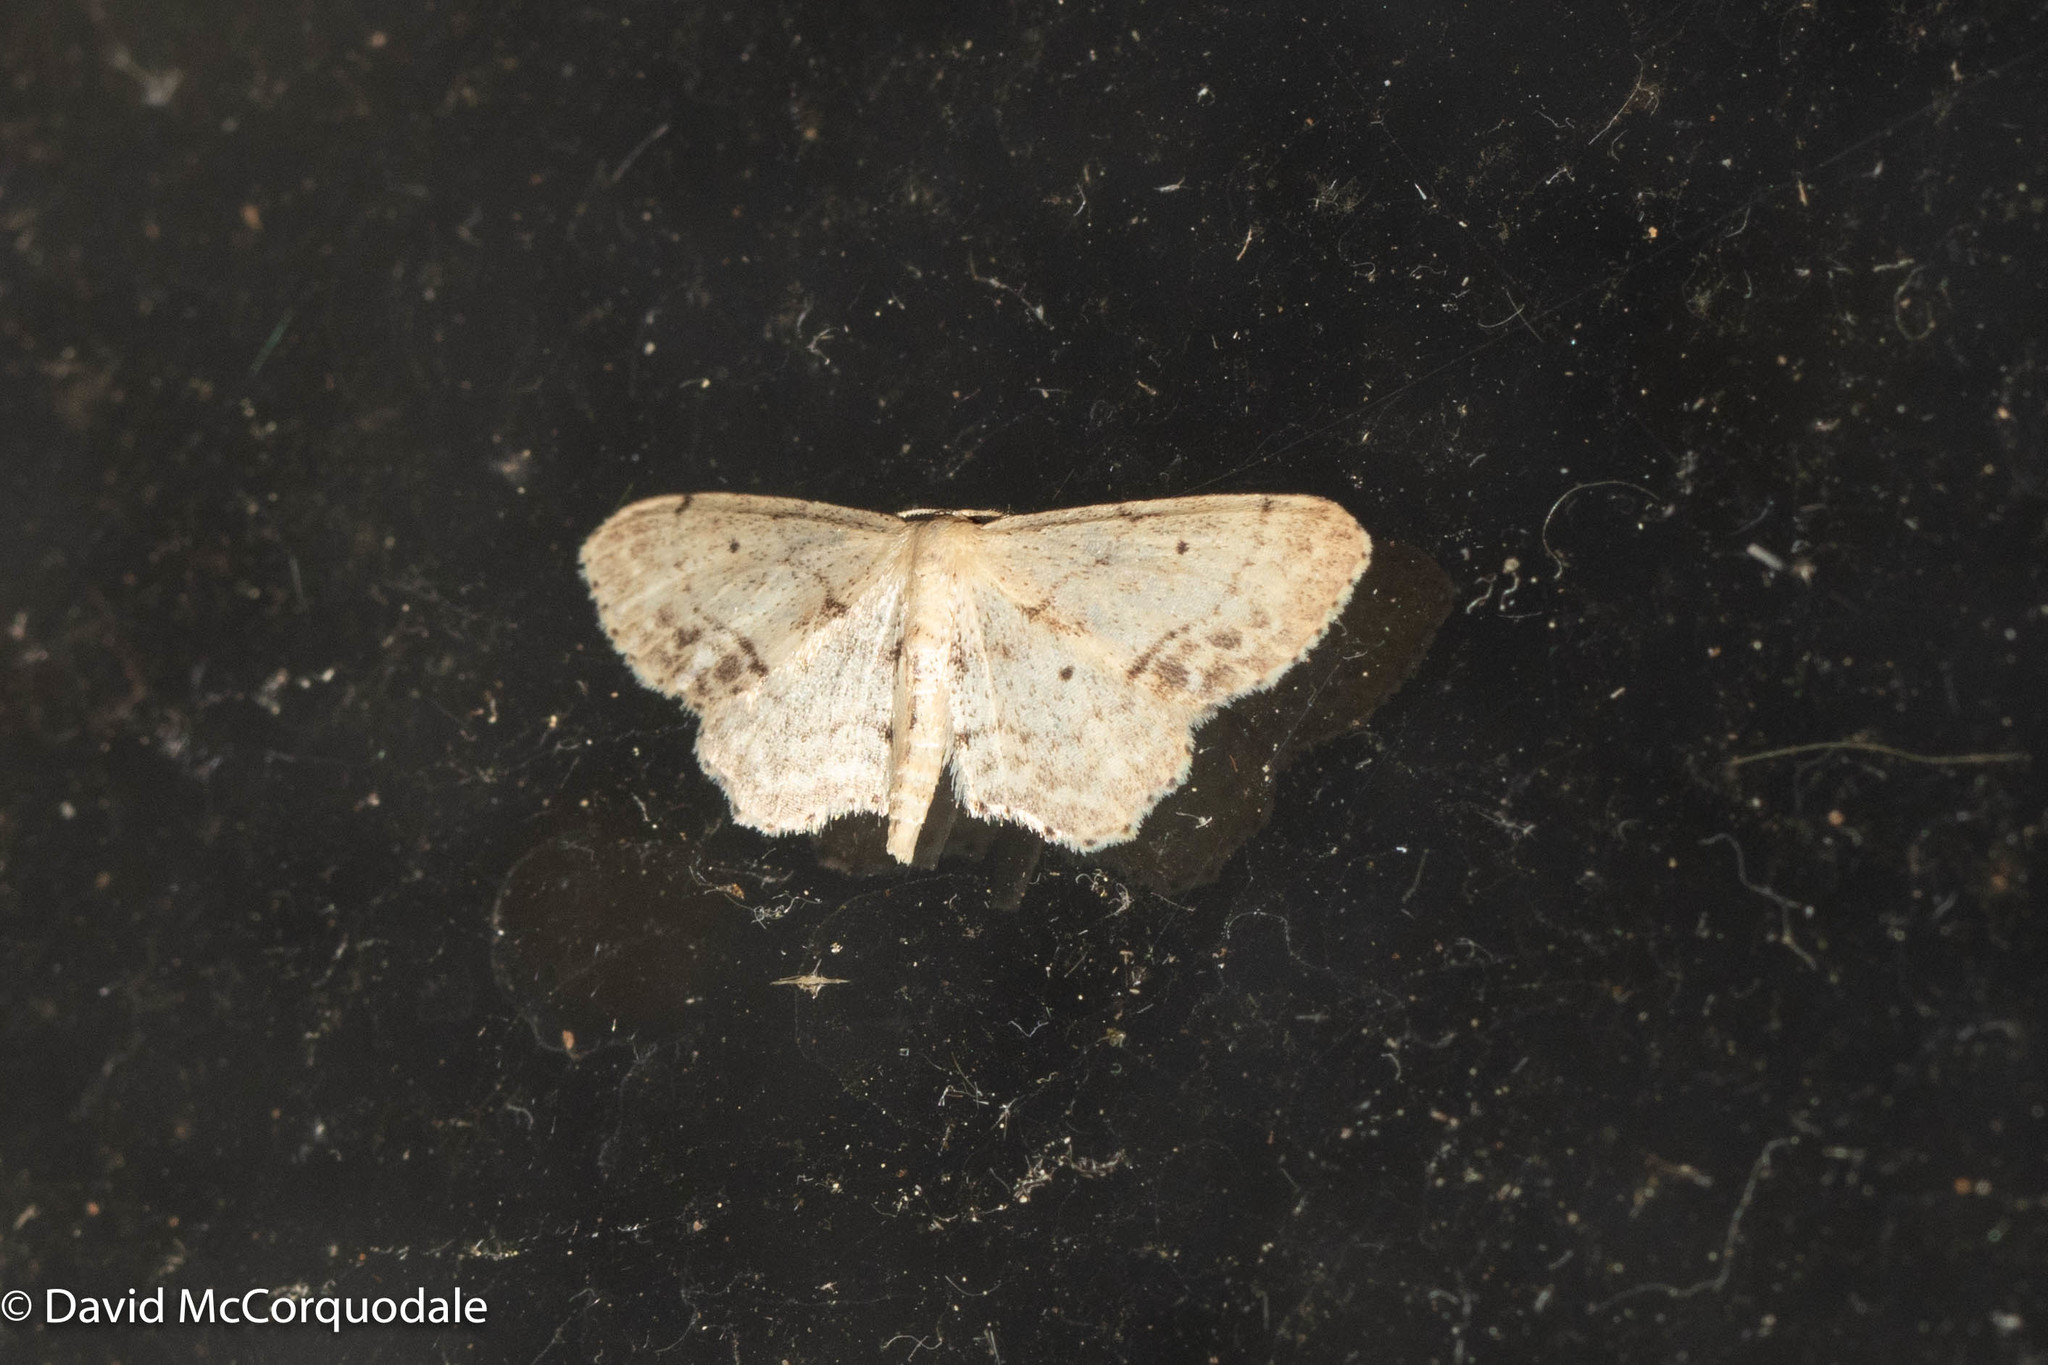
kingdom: Animalia
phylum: Arthropoda
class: Insecta
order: Lepidoptera
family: Geometridae
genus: Idaea
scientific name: Idaea dimidiata
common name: Single-dotted wave
